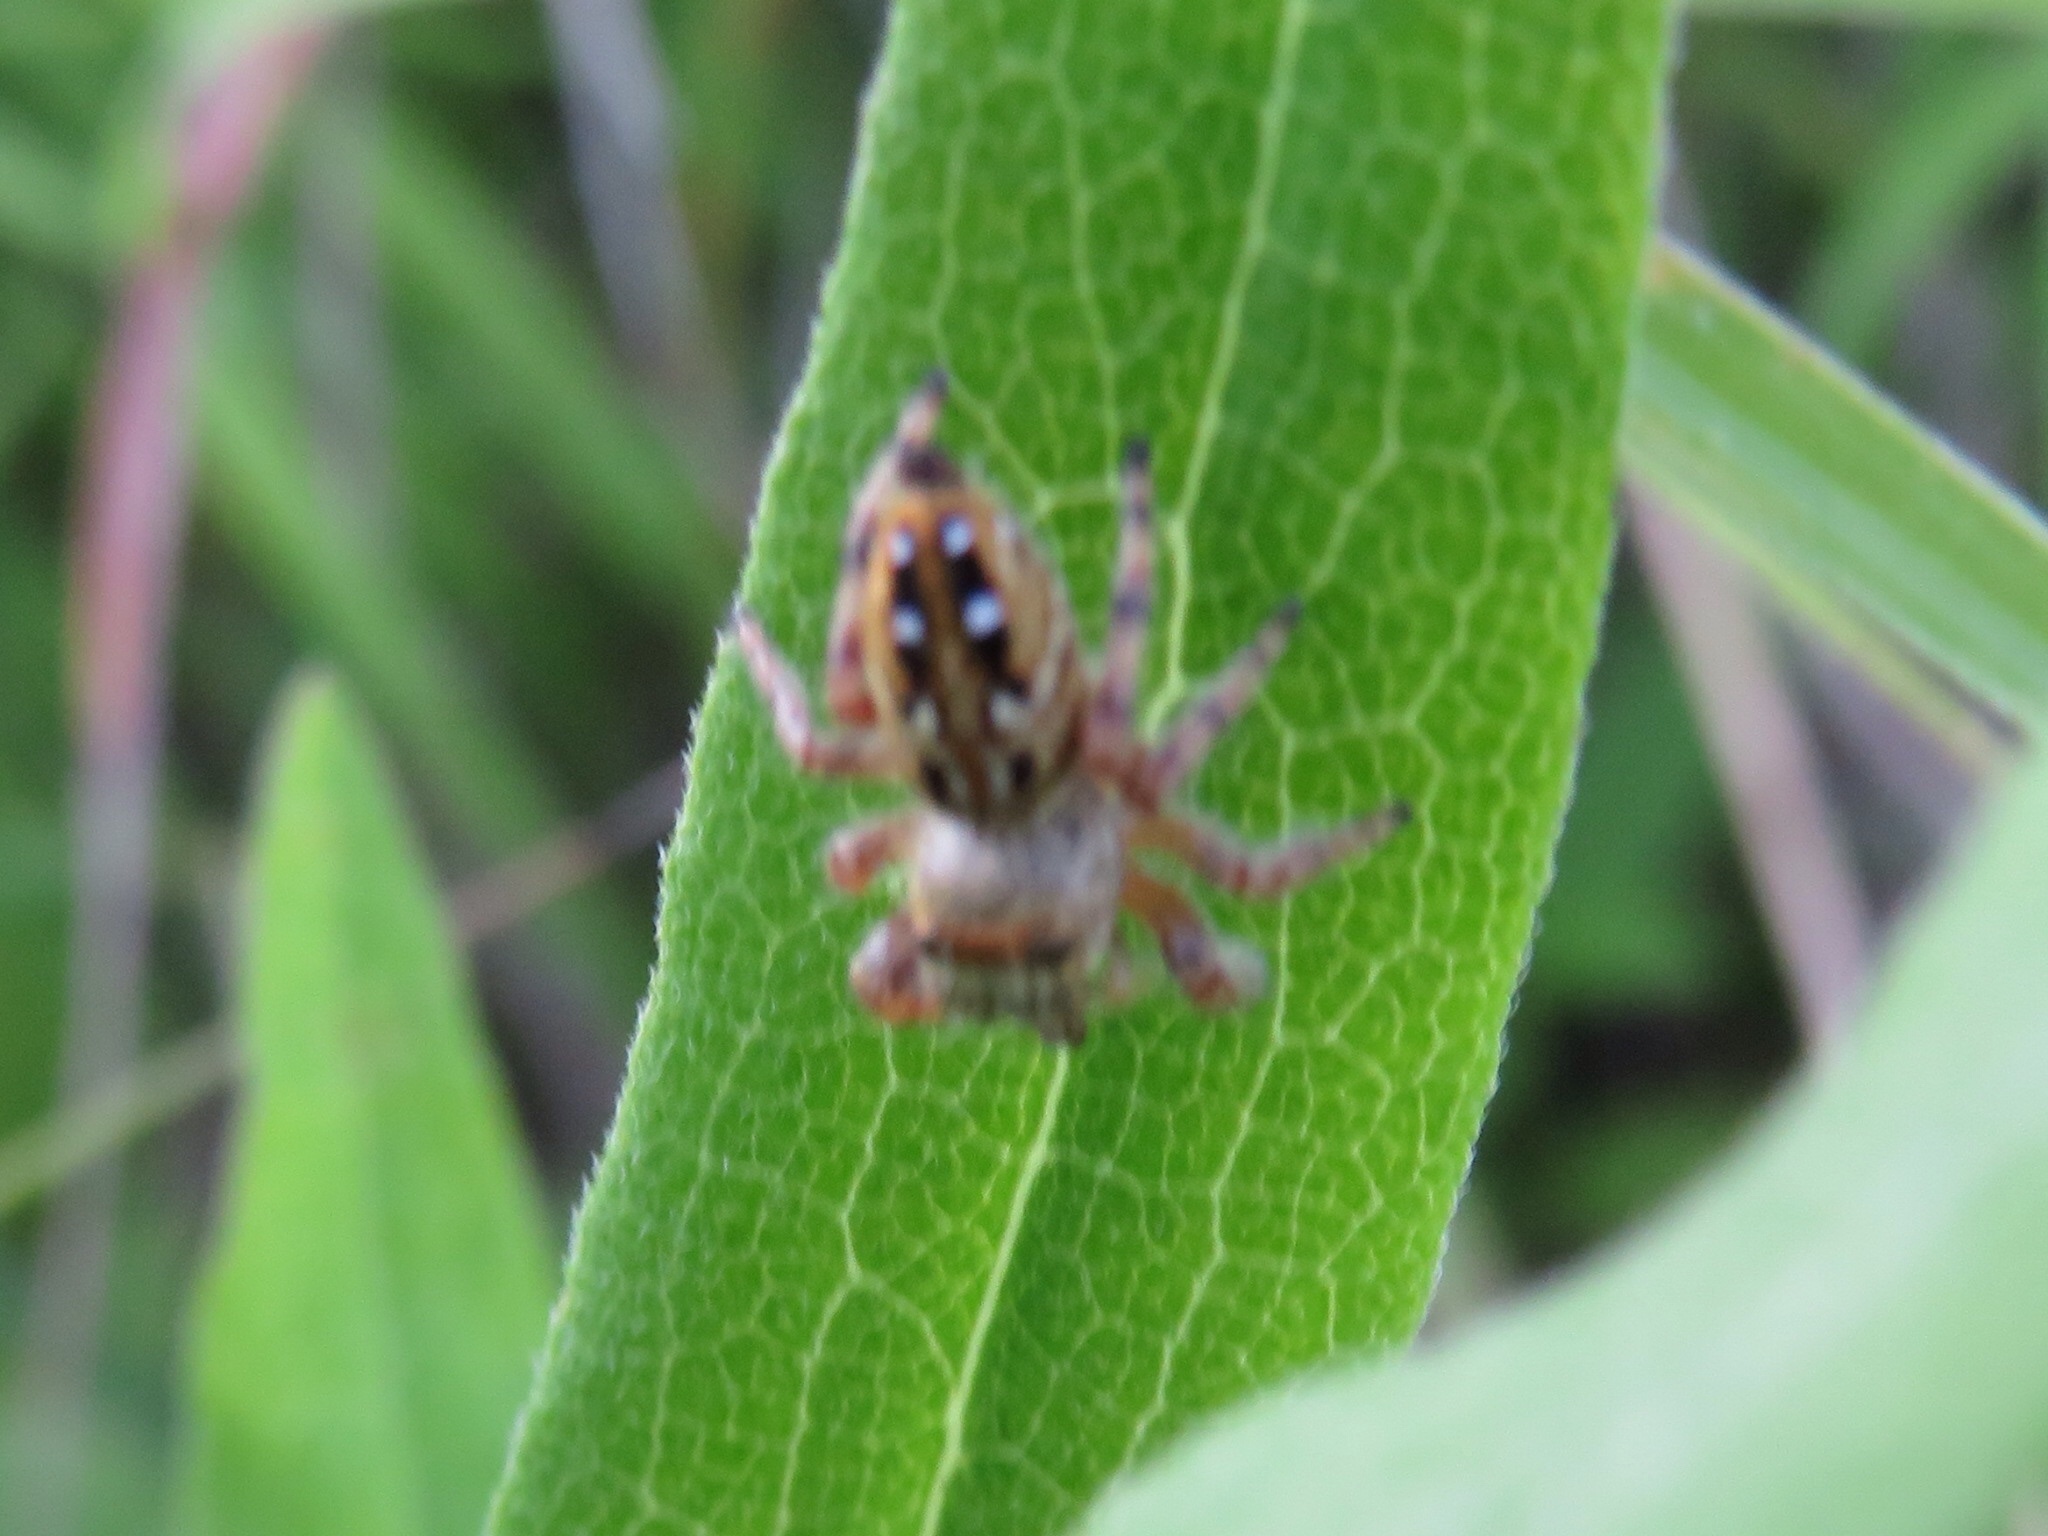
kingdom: Animalia
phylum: Arthropoda
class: Arachnida
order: Araneae
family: Salticidae
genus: Phidippus
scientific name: Phidippus clarus
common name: Brilliant jumping spider
